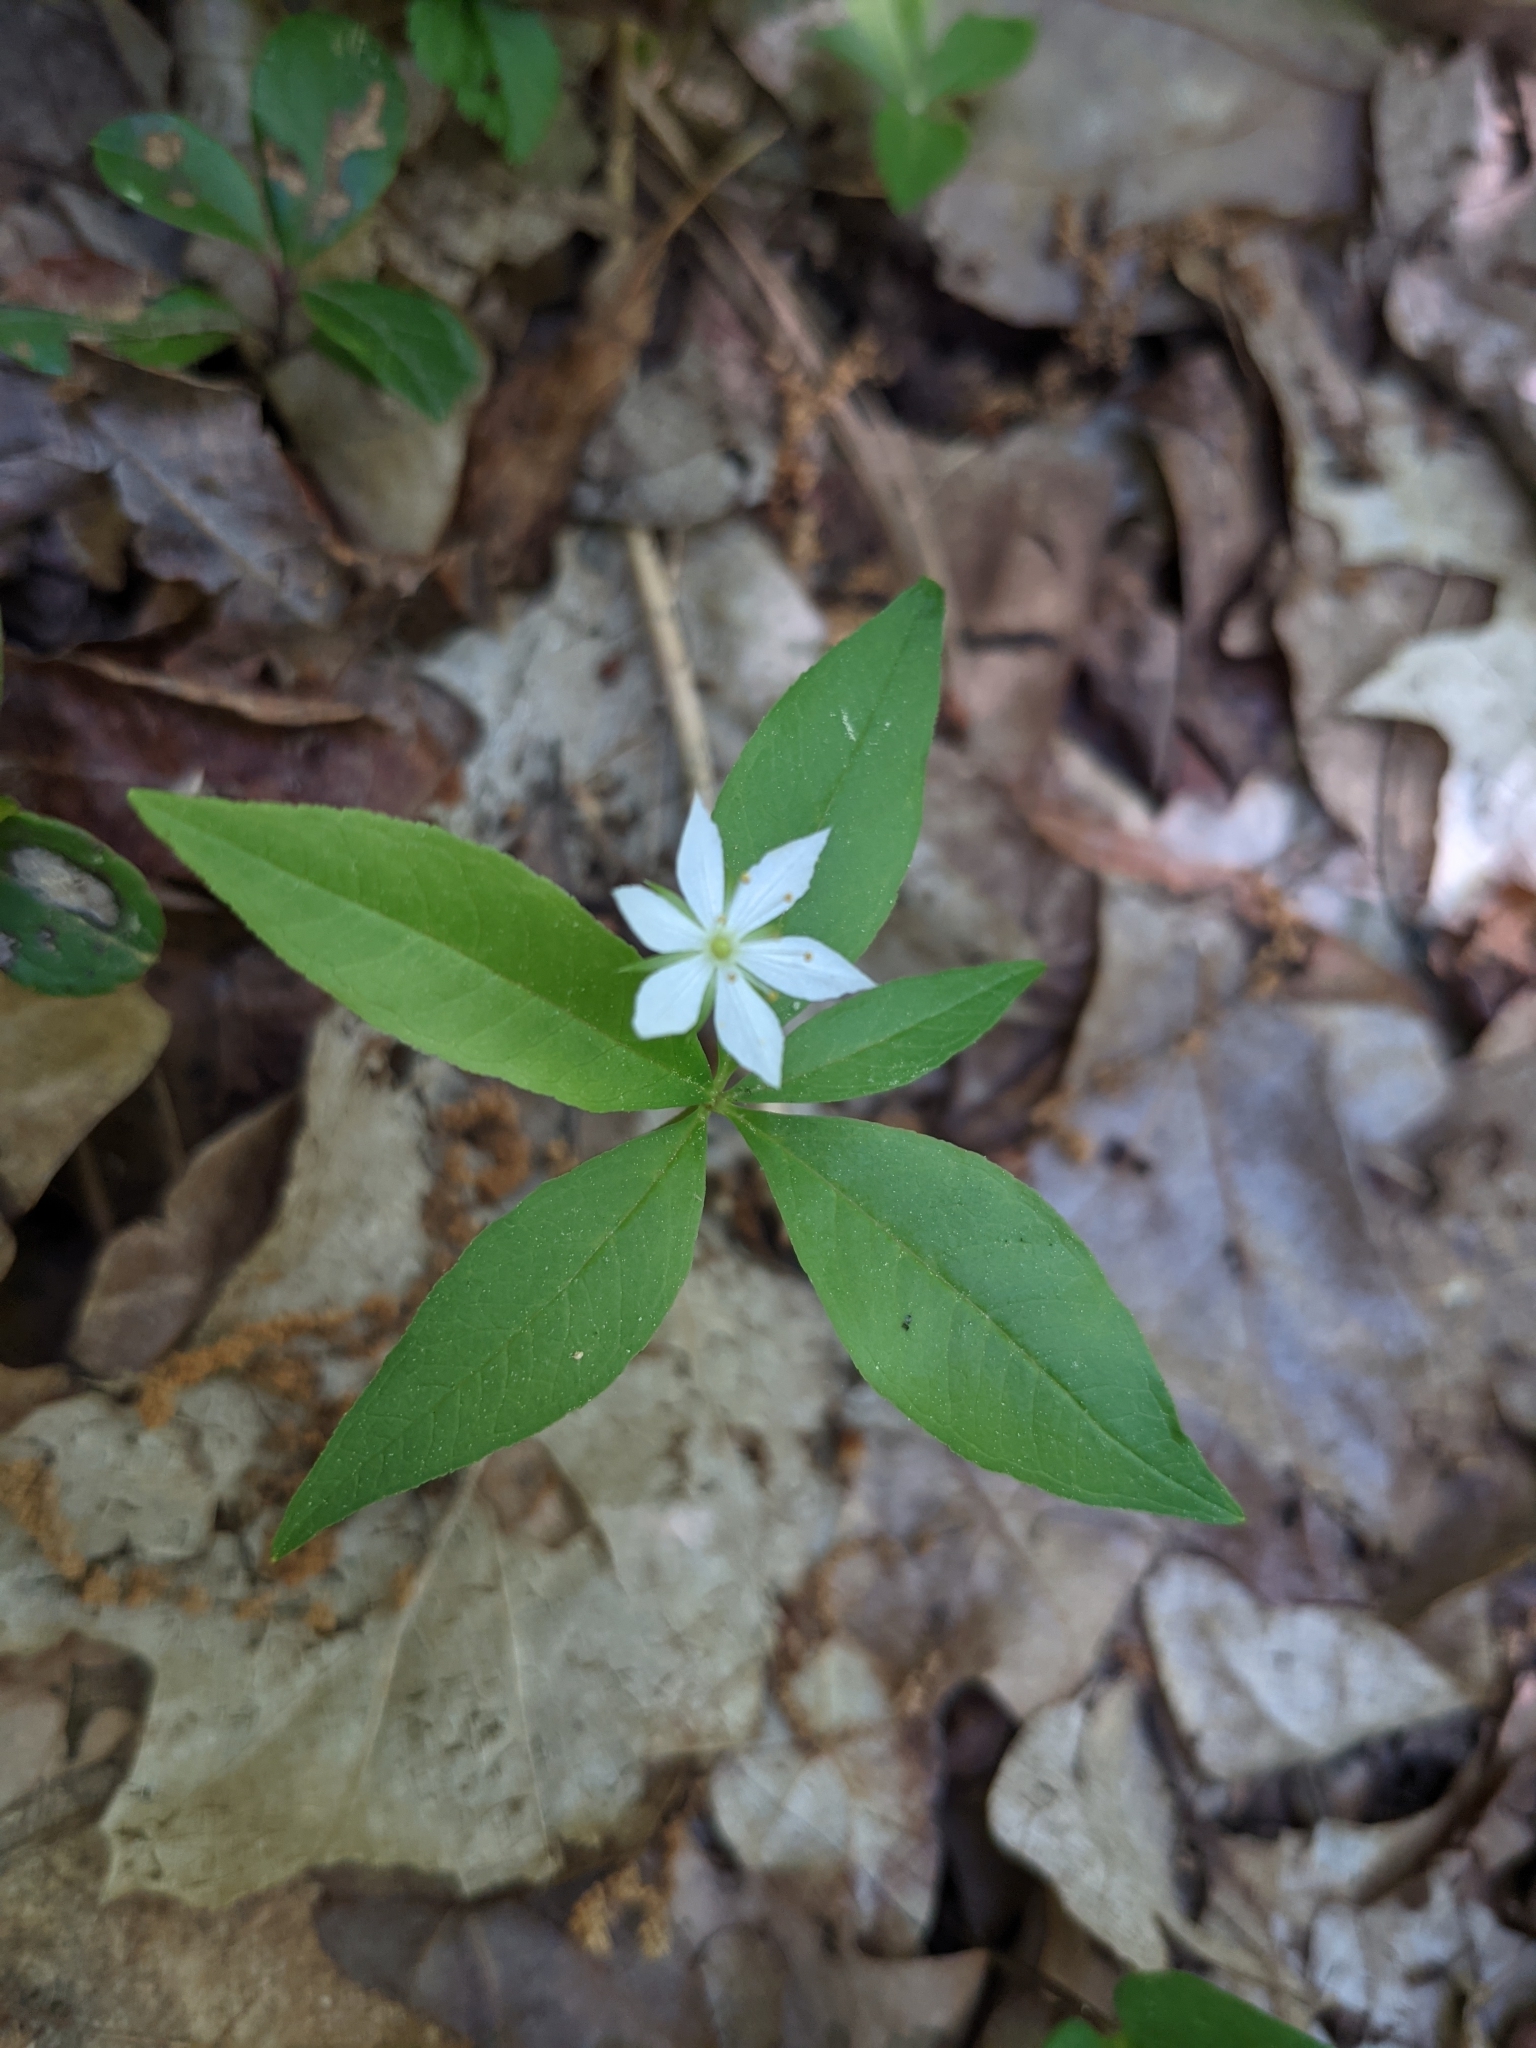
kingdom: Plantae
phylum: Tracheophyta
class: Magnoliopsida
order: Ericales
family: Primulaceae
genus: Lysimachia
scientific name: Lysimachia borealis
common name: American starflower
